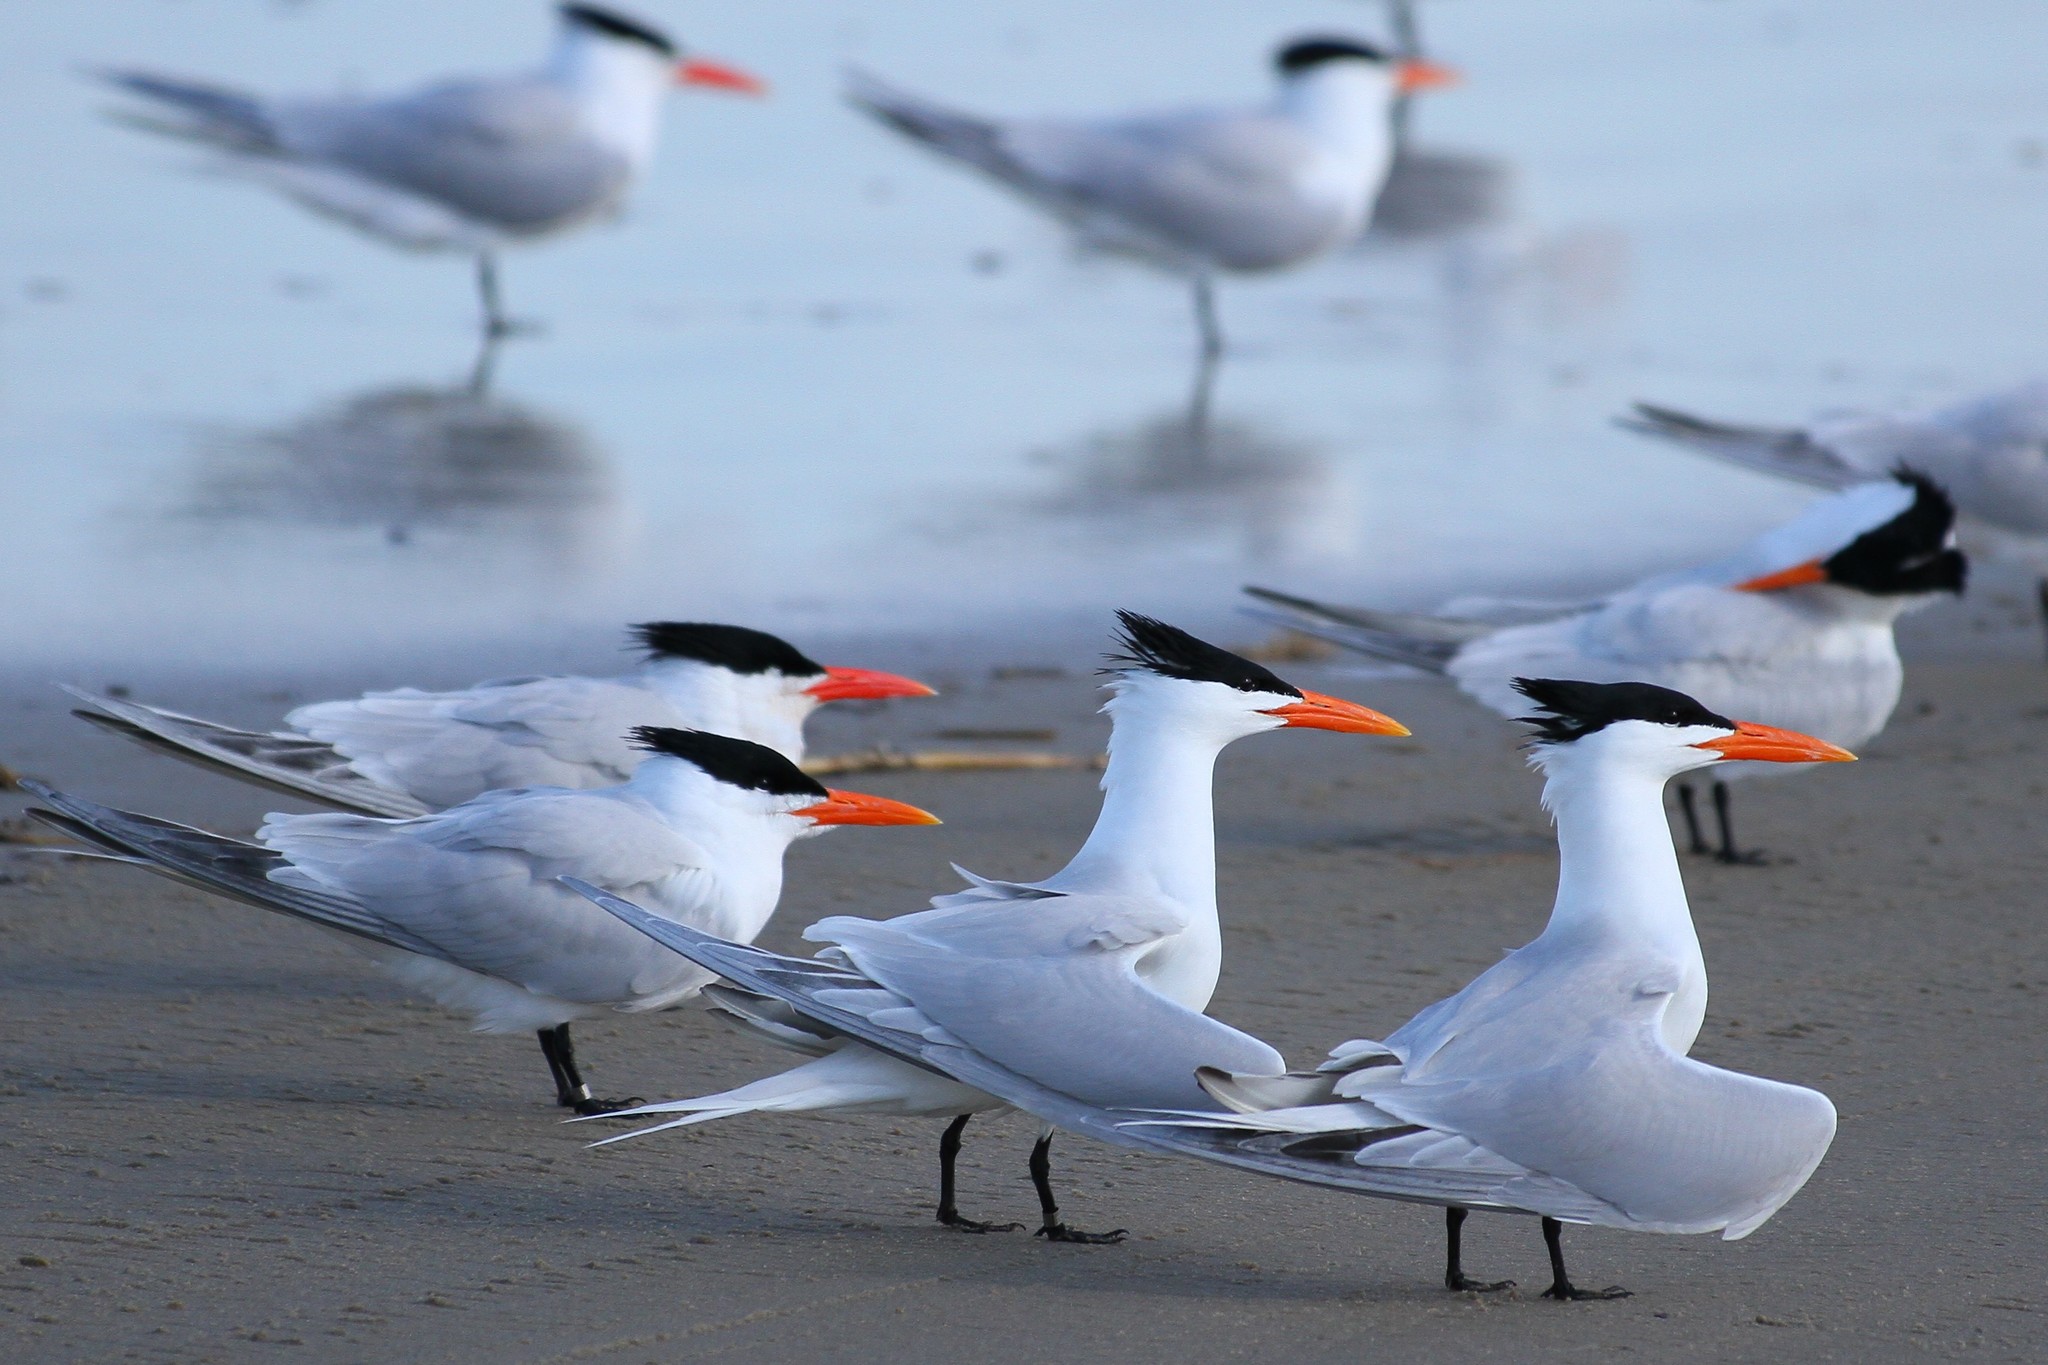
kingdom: Animalia
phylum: Chordata
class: Aves
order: Charadriiformes
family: Laridae
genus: Thalasseus
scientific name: Thalasseus maximus
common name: Royal tern
